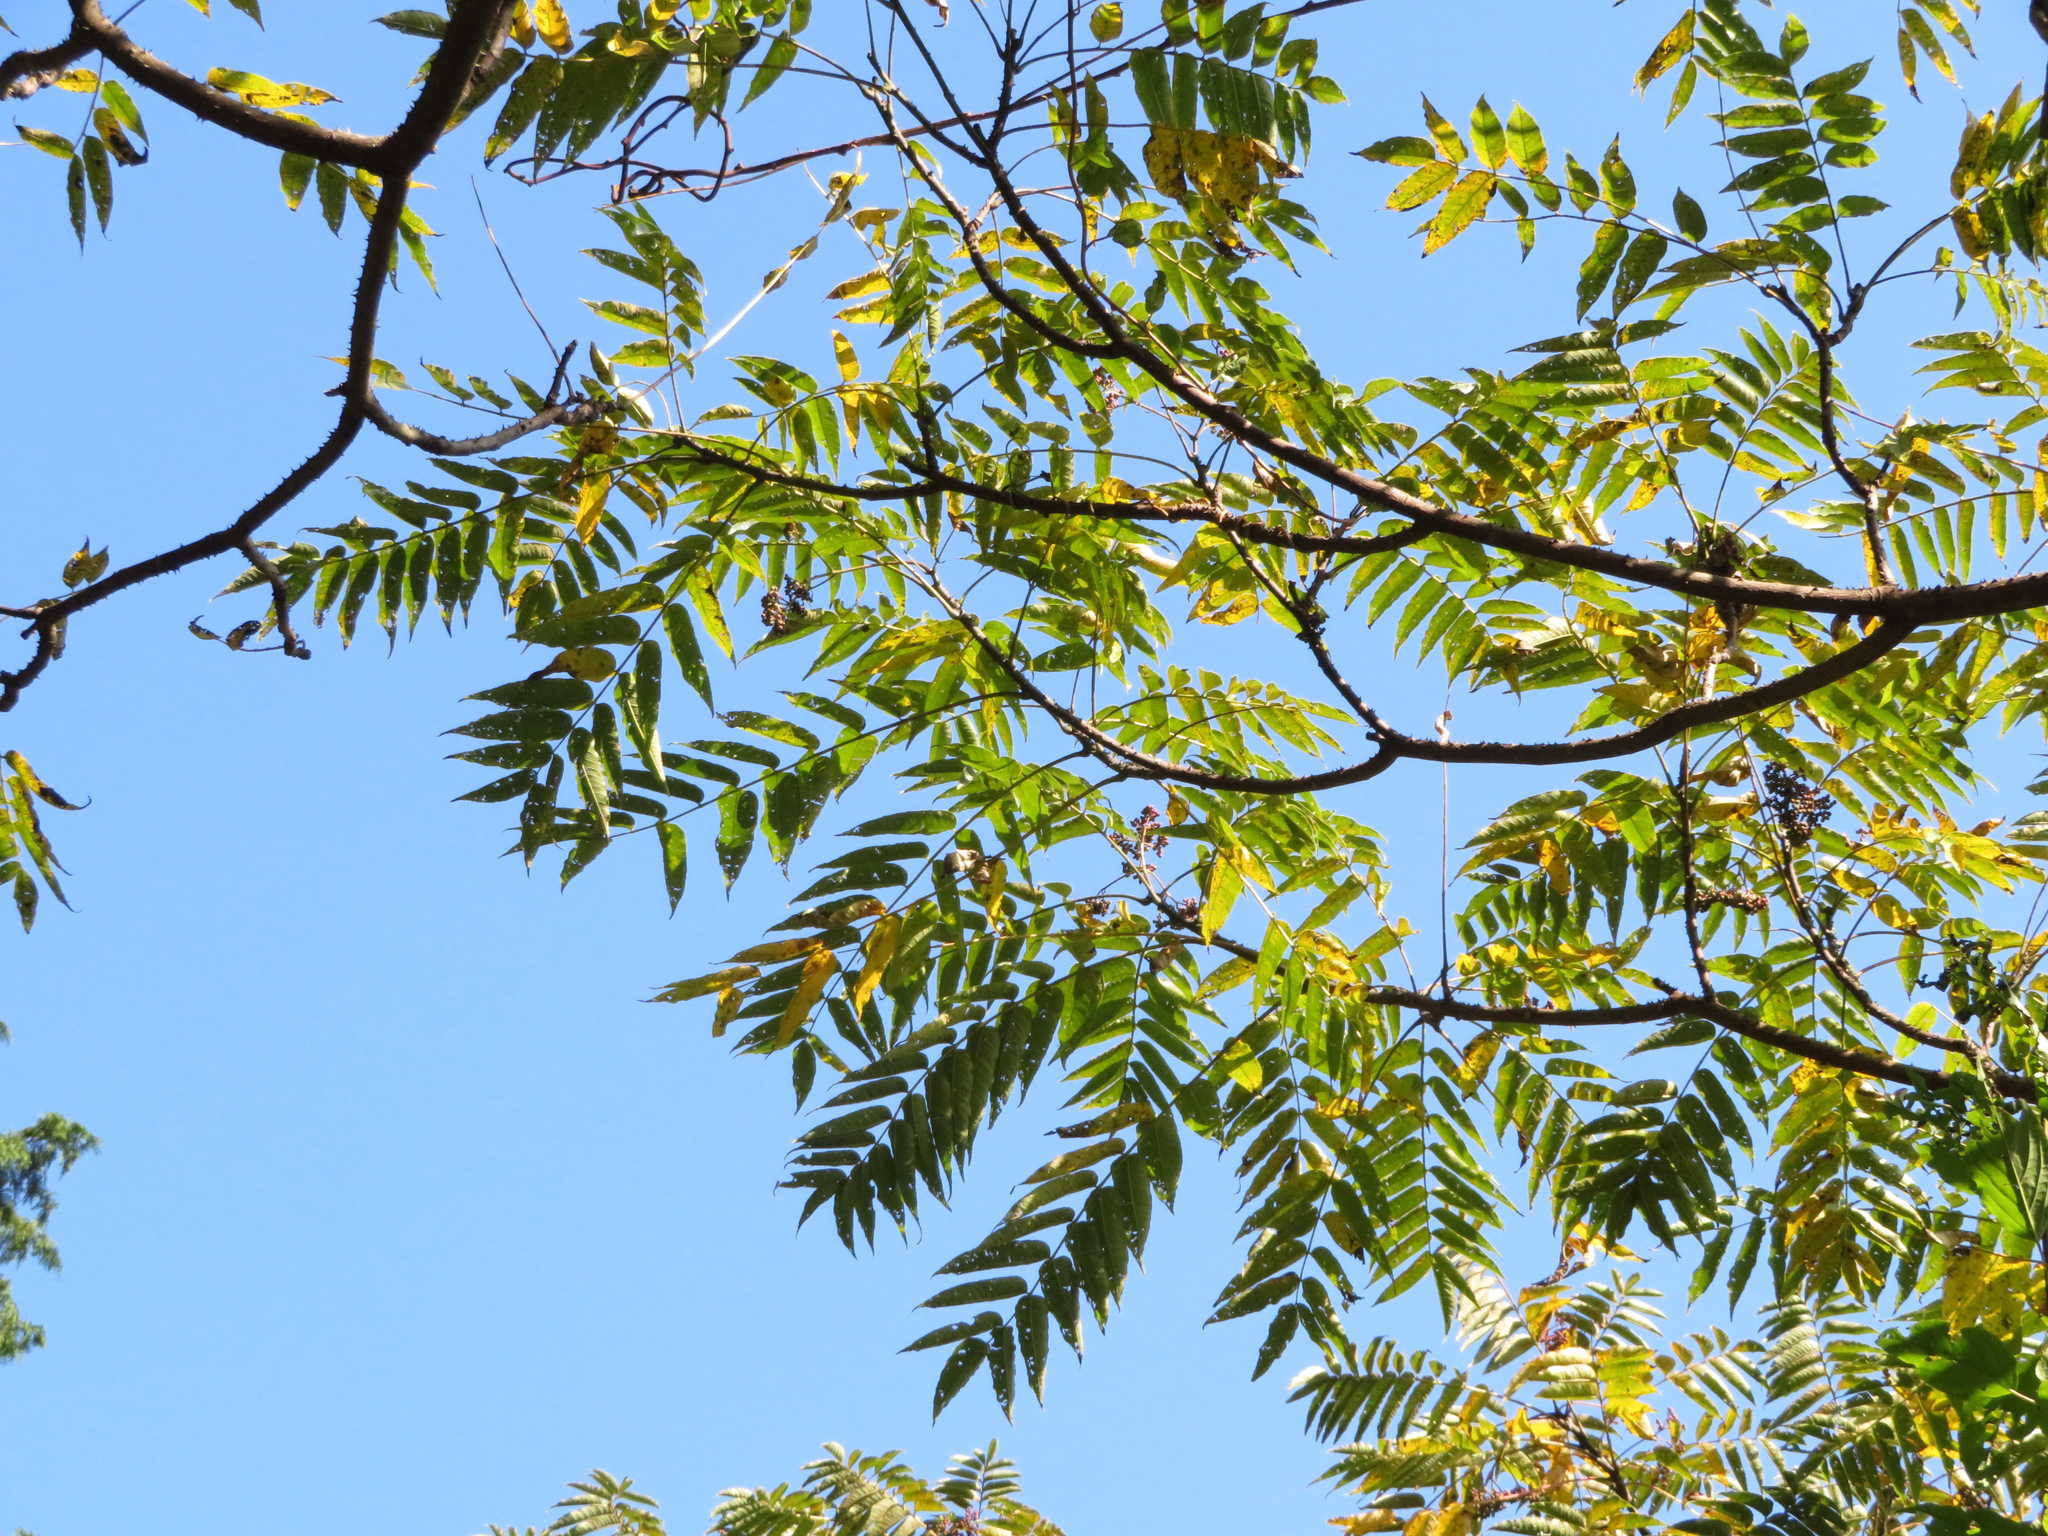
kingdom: Plantae
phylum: Tracheophyta
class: Magnoliopsida
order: Sapindales
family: Rutaceae
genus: Zanthoxylum
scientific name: Zanthoxylum ailanthoides
